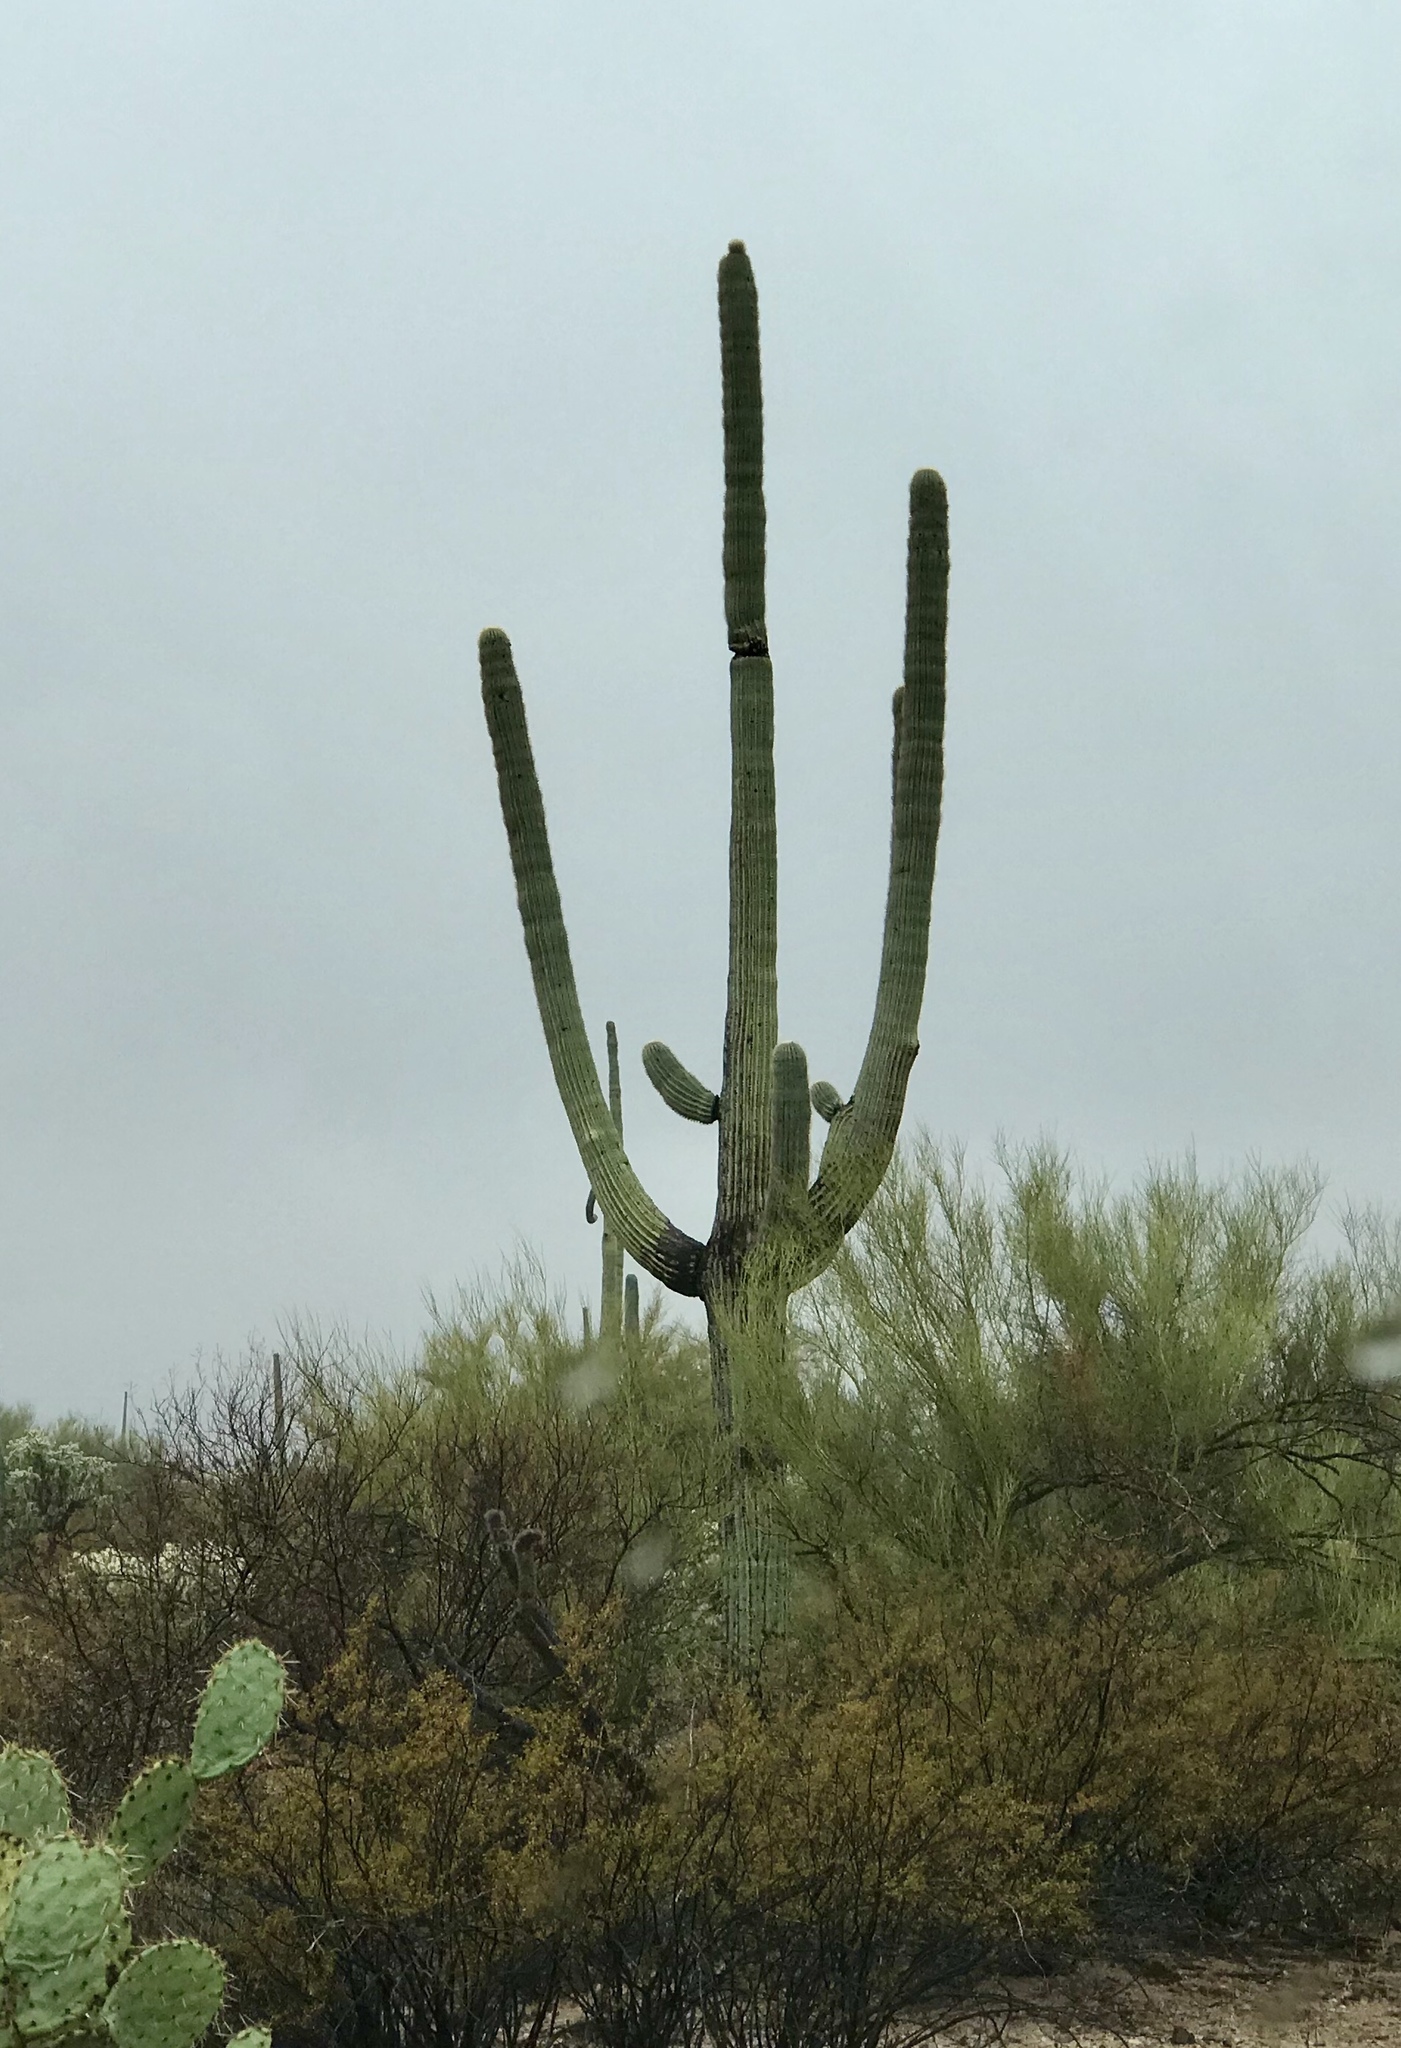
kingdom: Plantae
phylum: Tracheophyta
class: Magnoliopsida
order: Caryophyllales
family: Cactaceae
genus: Carnegiea
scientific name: Carnegiea gigantea
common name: Saguaro
